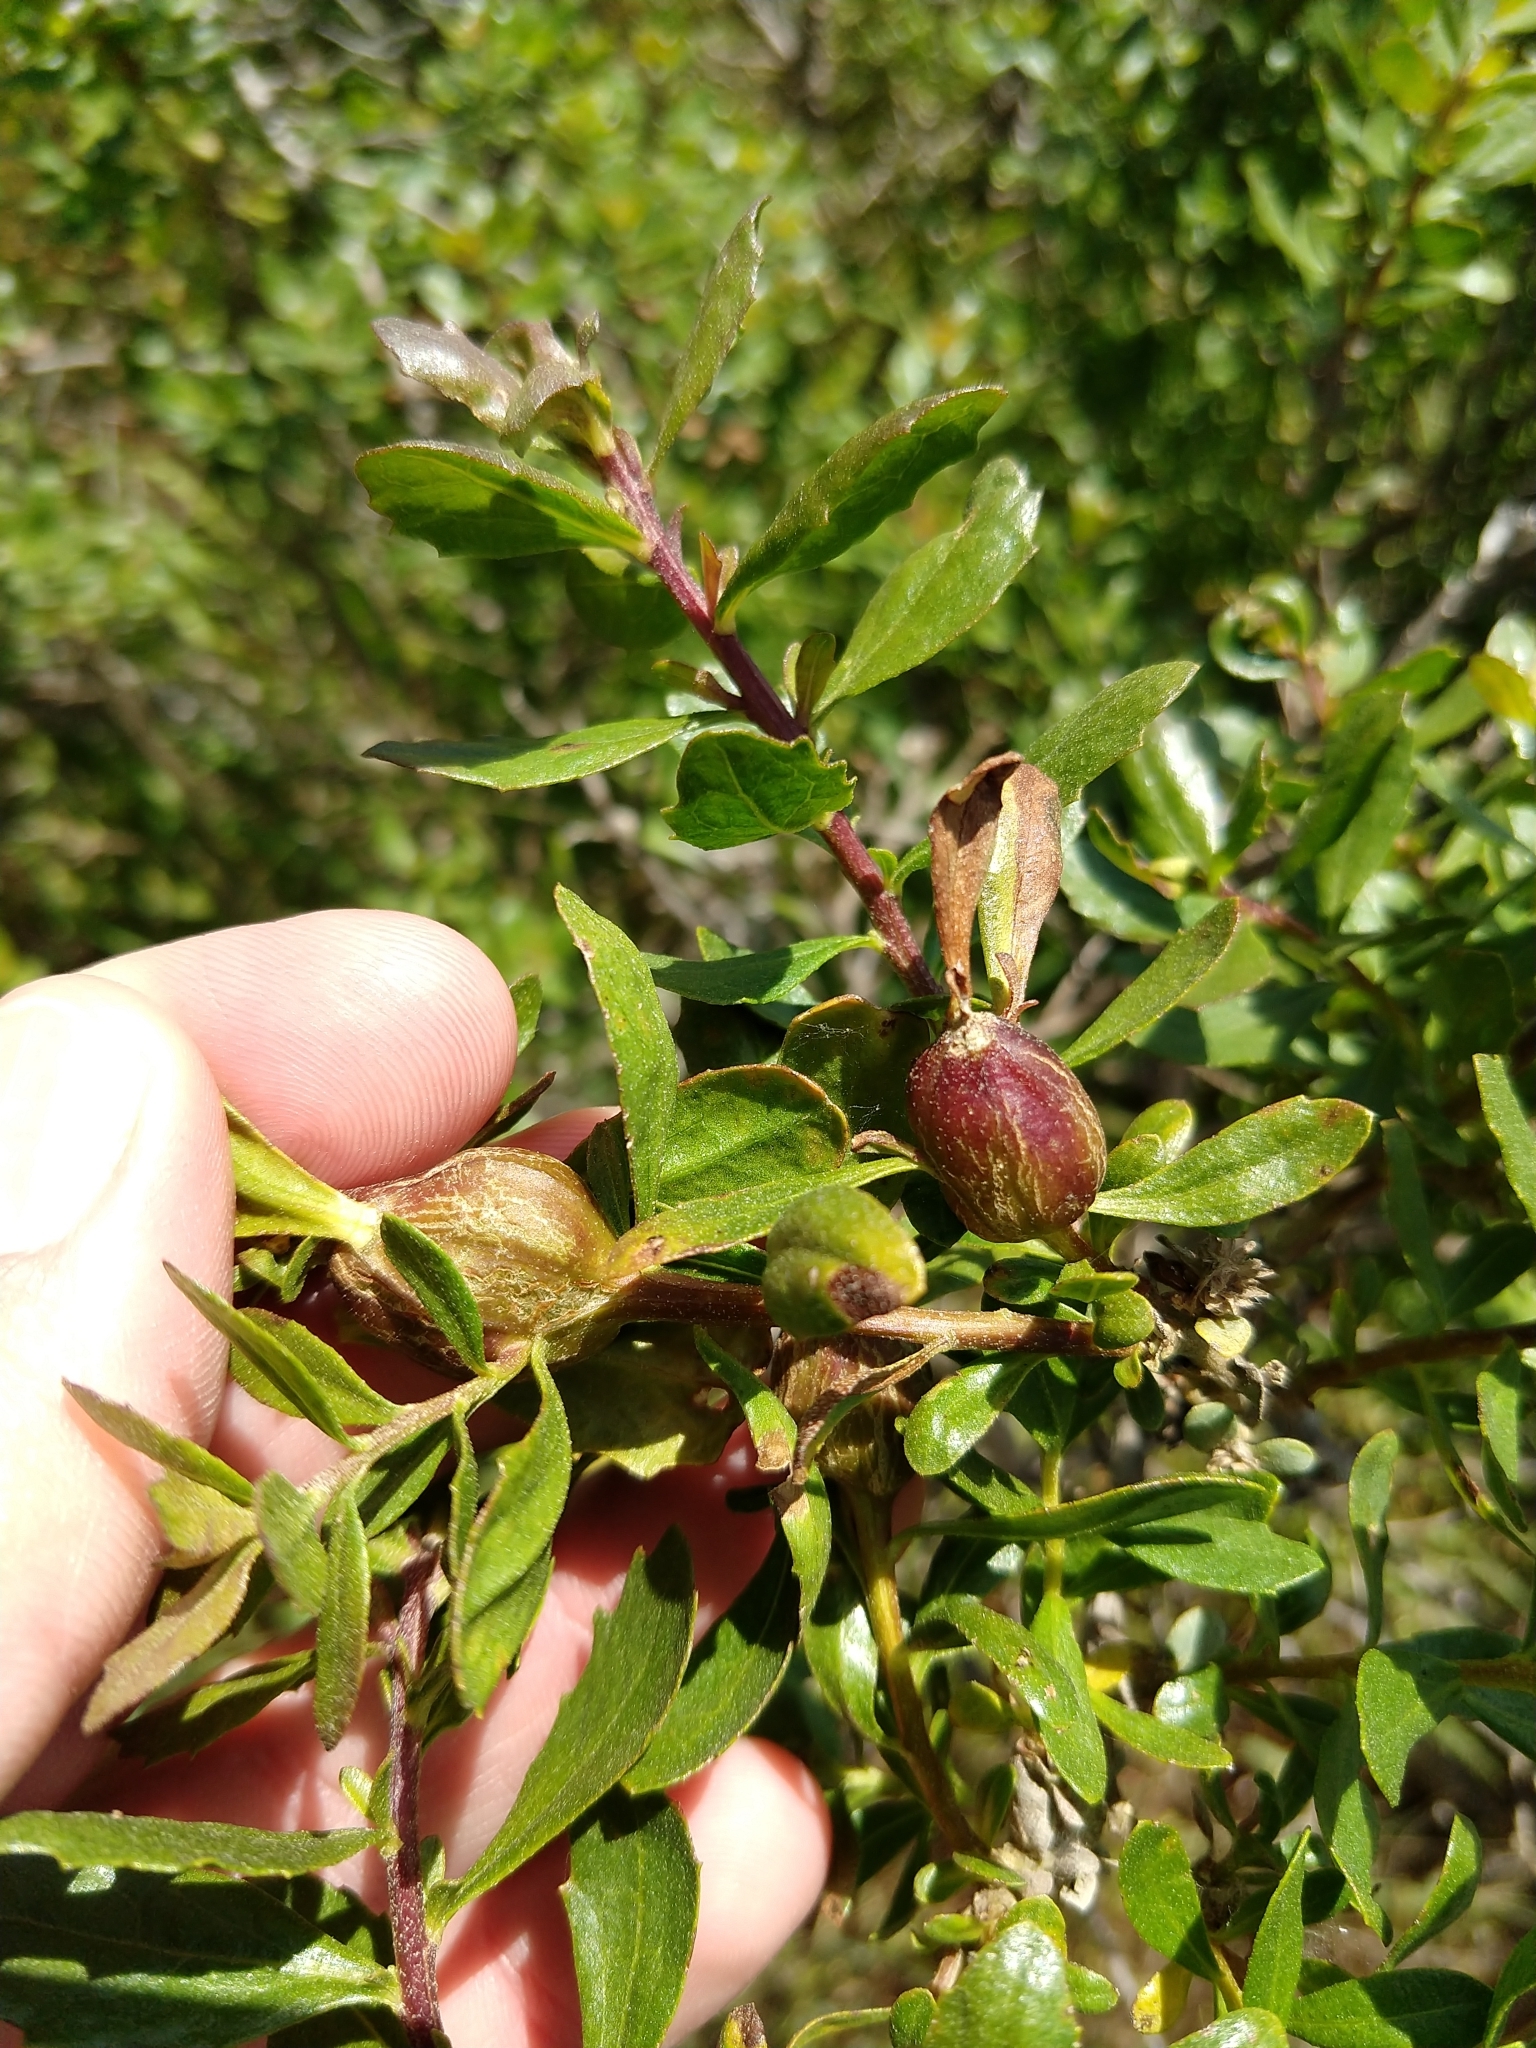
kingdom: Animalia
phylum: Arthropoda
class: Insecta
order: Lepidoptera
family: Gelechiidae
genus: Gnorimoschema
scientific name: Gnorimoschema baccharisella
